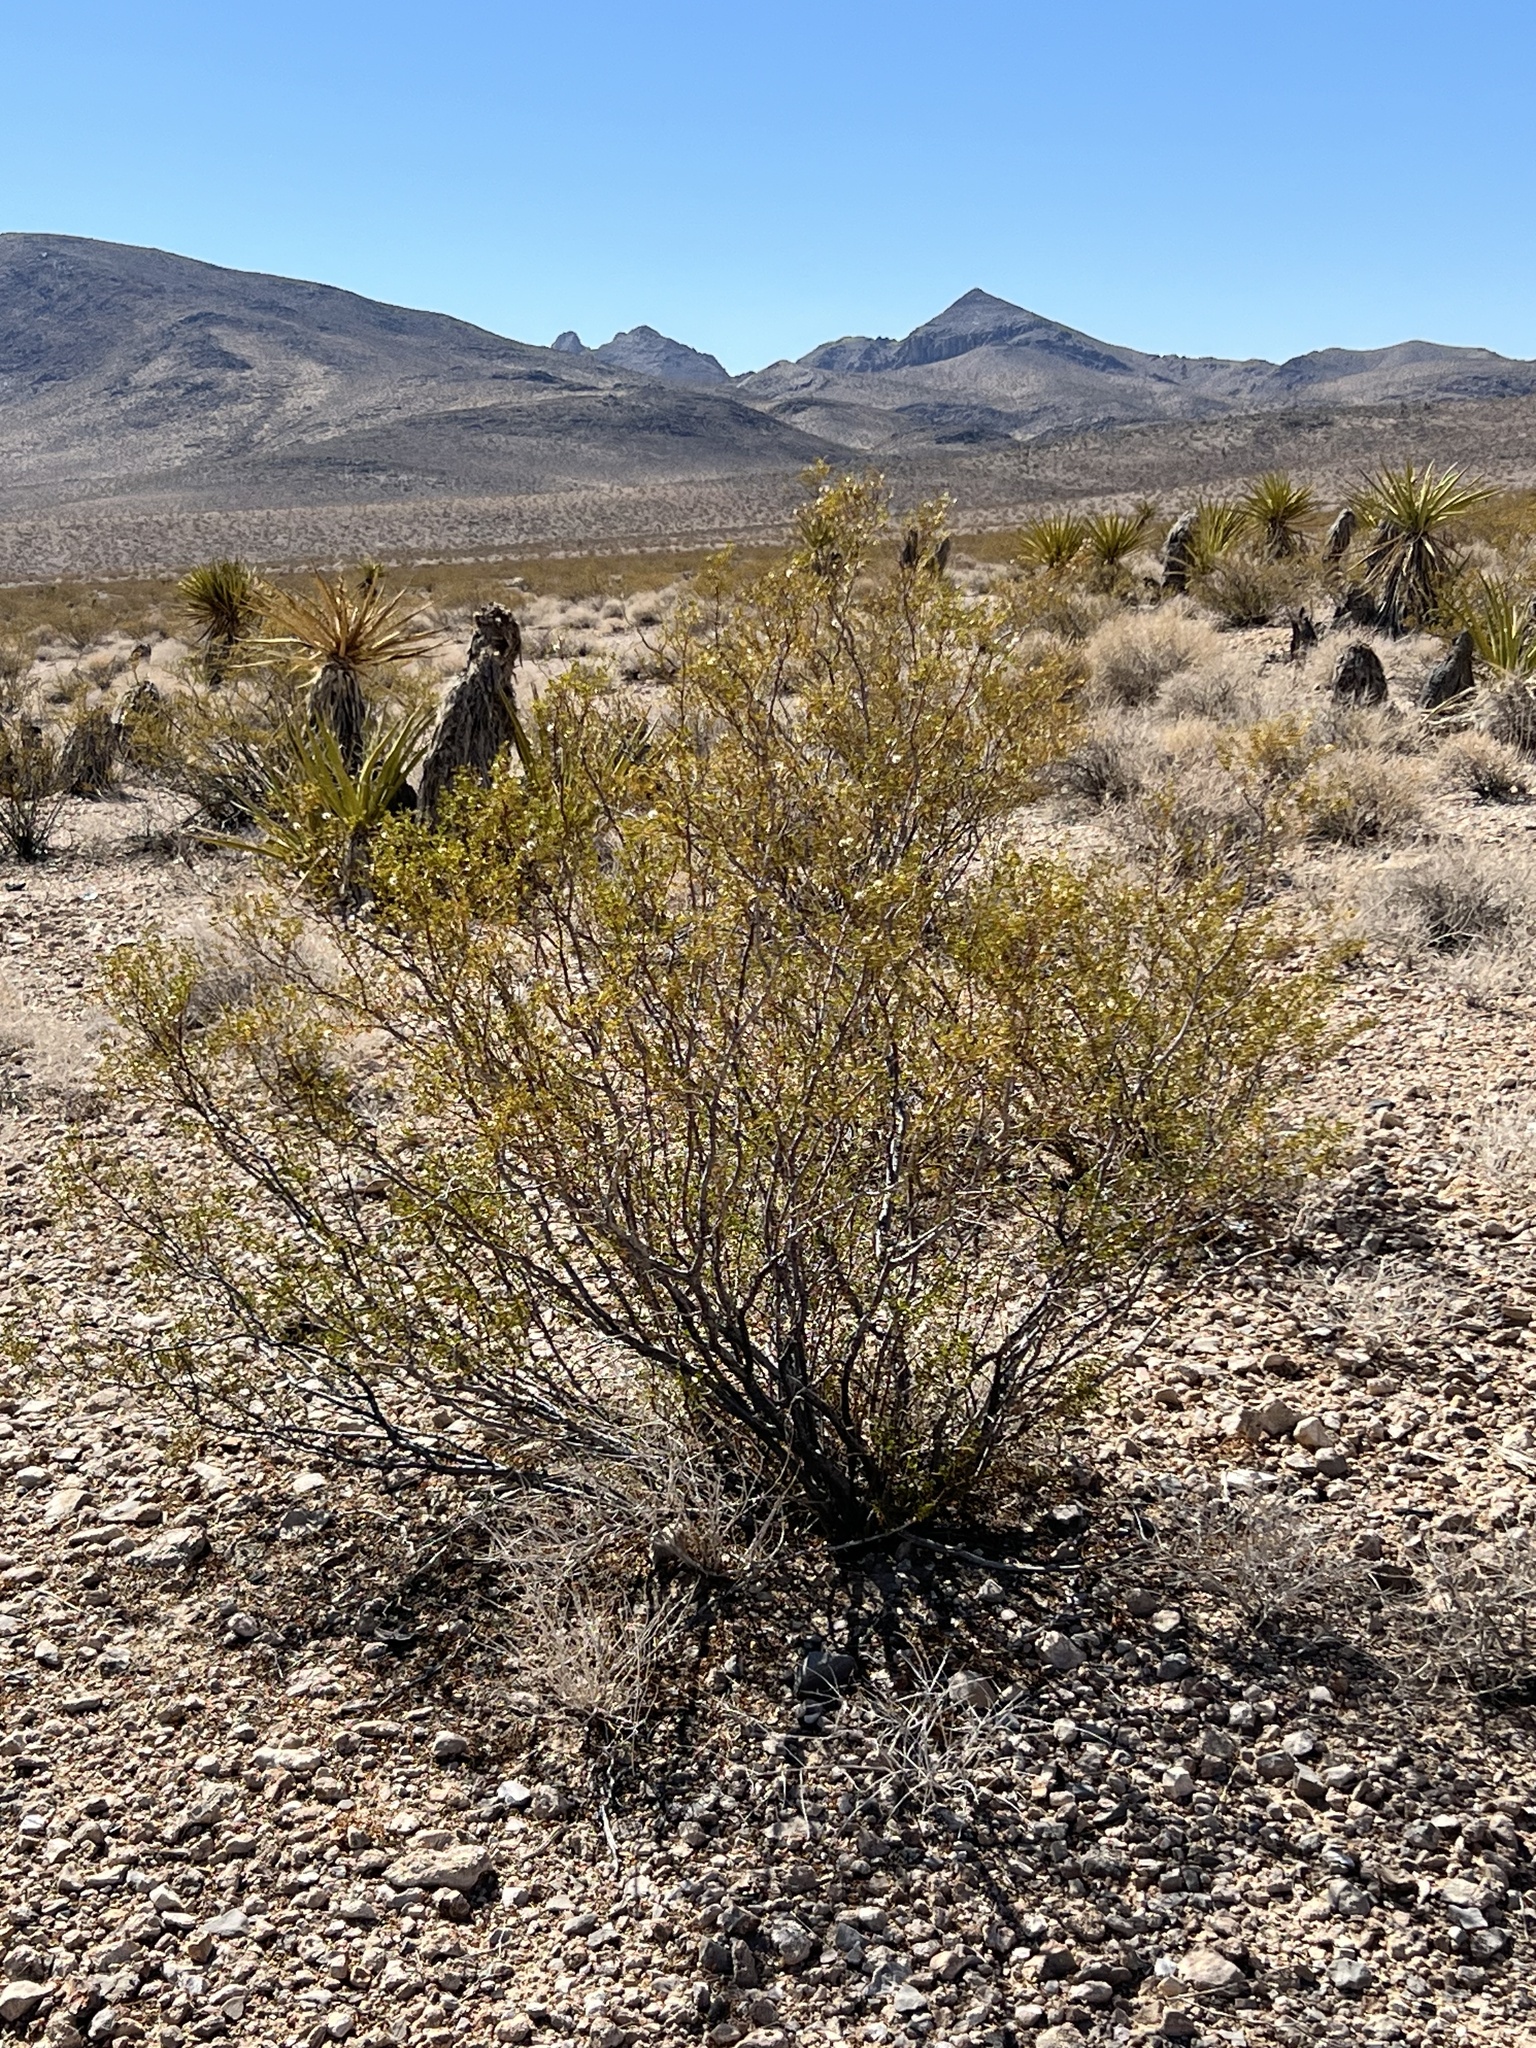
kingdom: Plantae
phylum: Tracheophyta
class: Magnoliopsida
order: Zygophyllales
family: Zygophyllaceae
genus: Larrea
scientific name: Larrea tridentata
